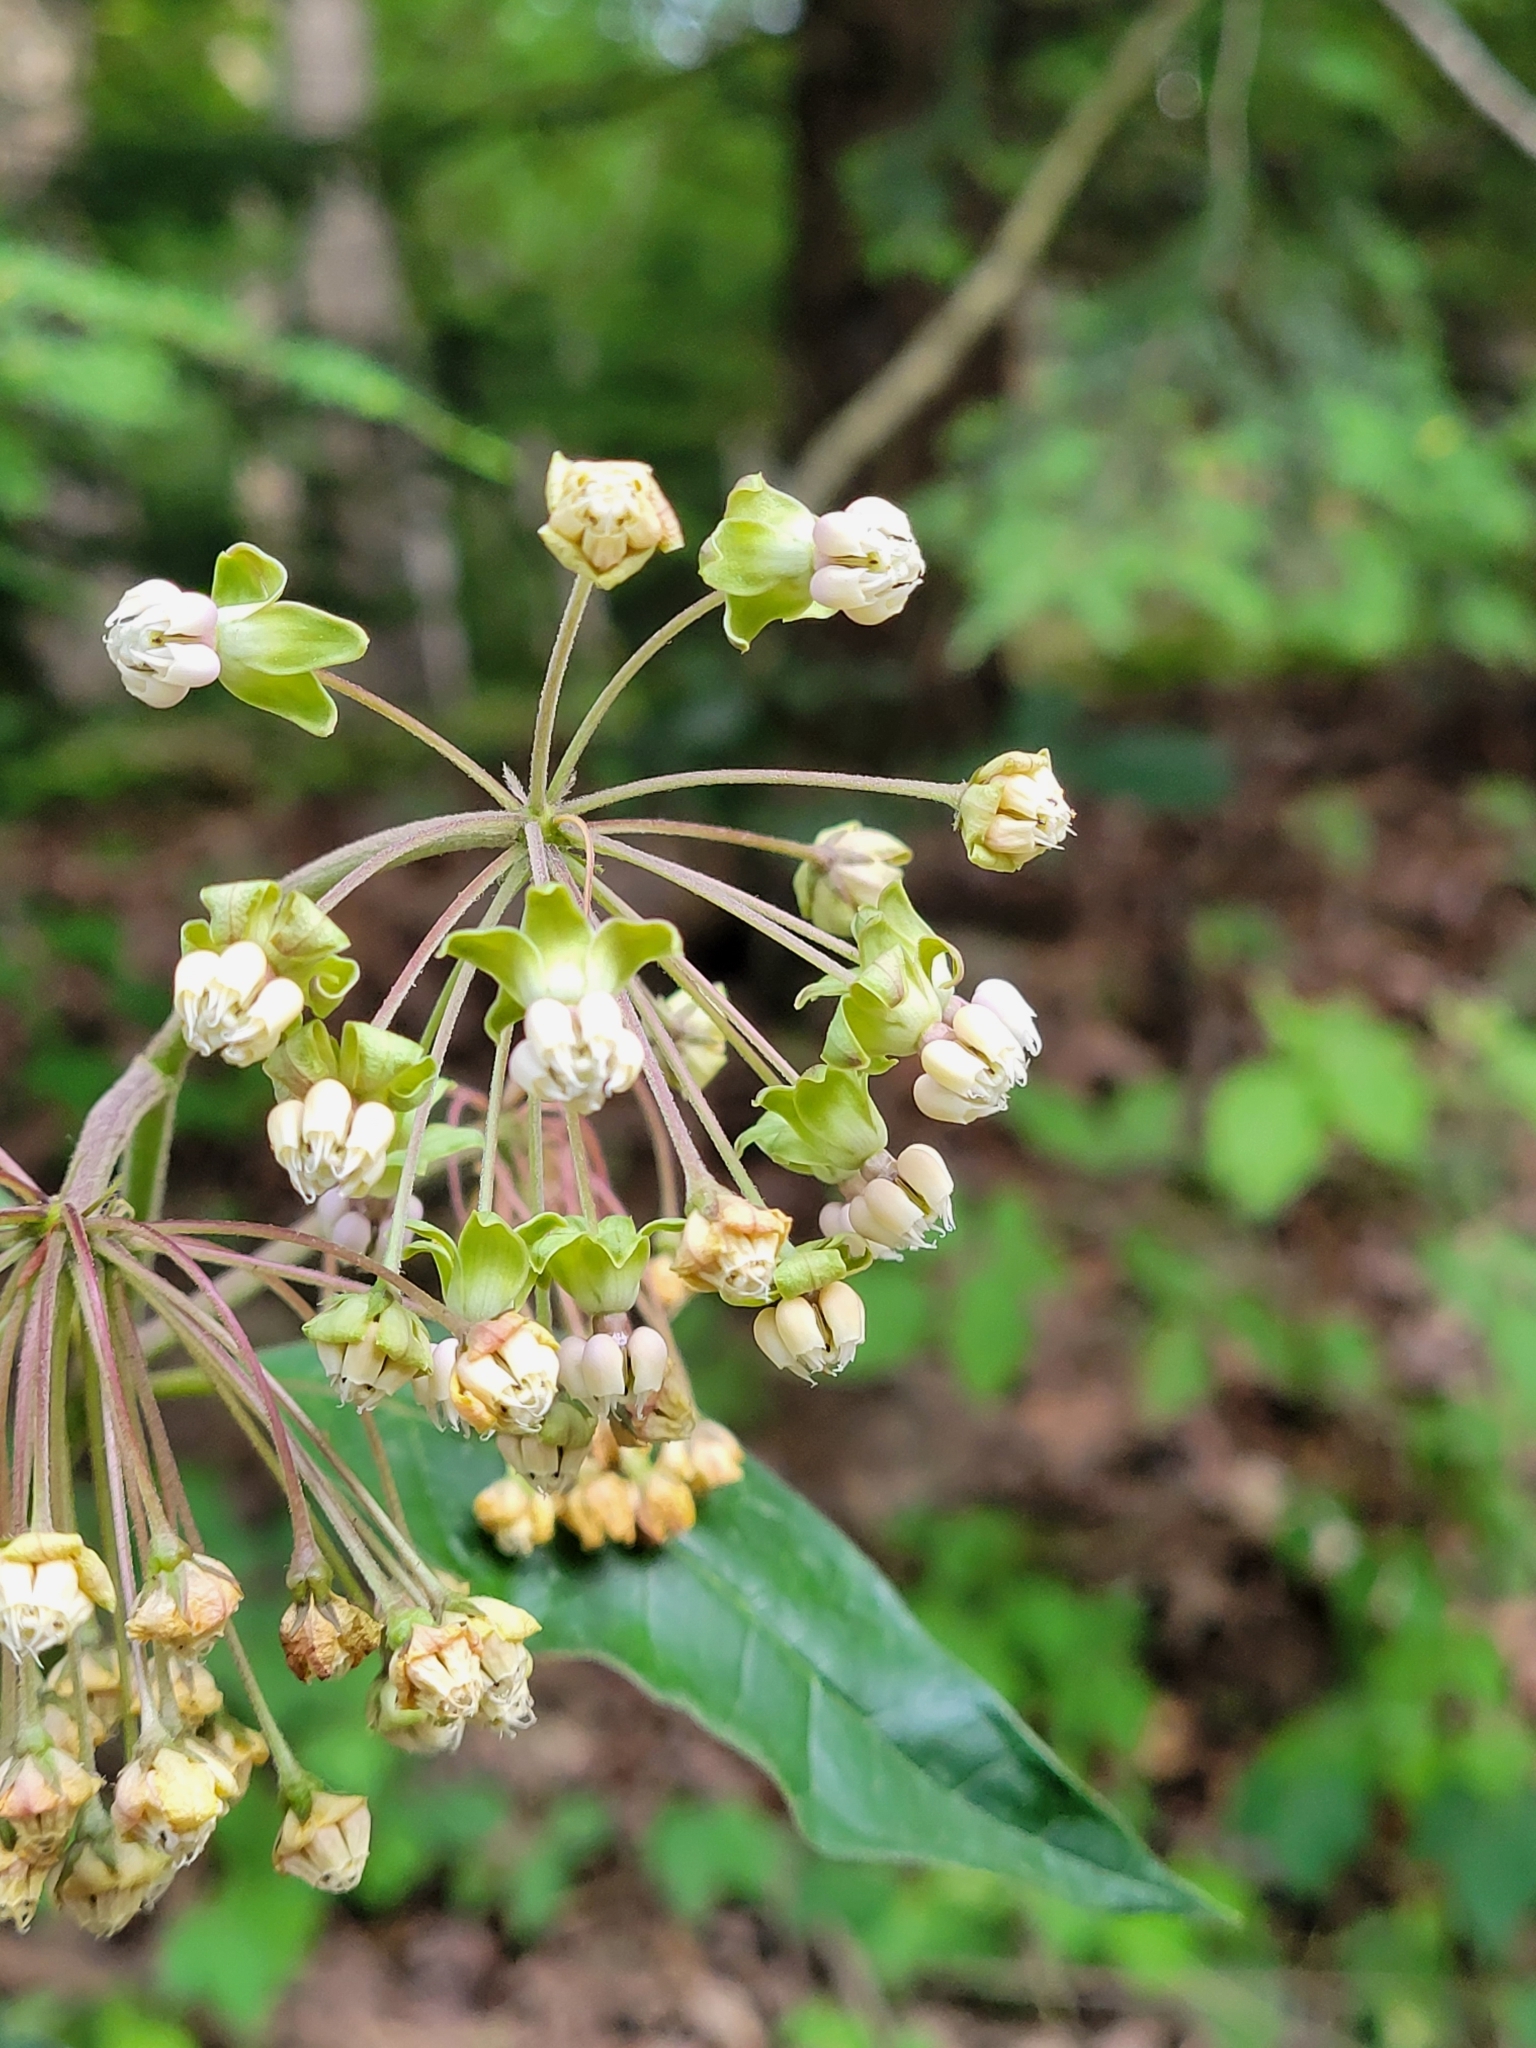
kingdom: Plantae
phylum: Tracheophyta
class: Magnoliopsida
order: Gentianales
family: Apocynaceae
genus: Asclepias
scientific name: Asclepias exaltata
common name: Poke milkweed
